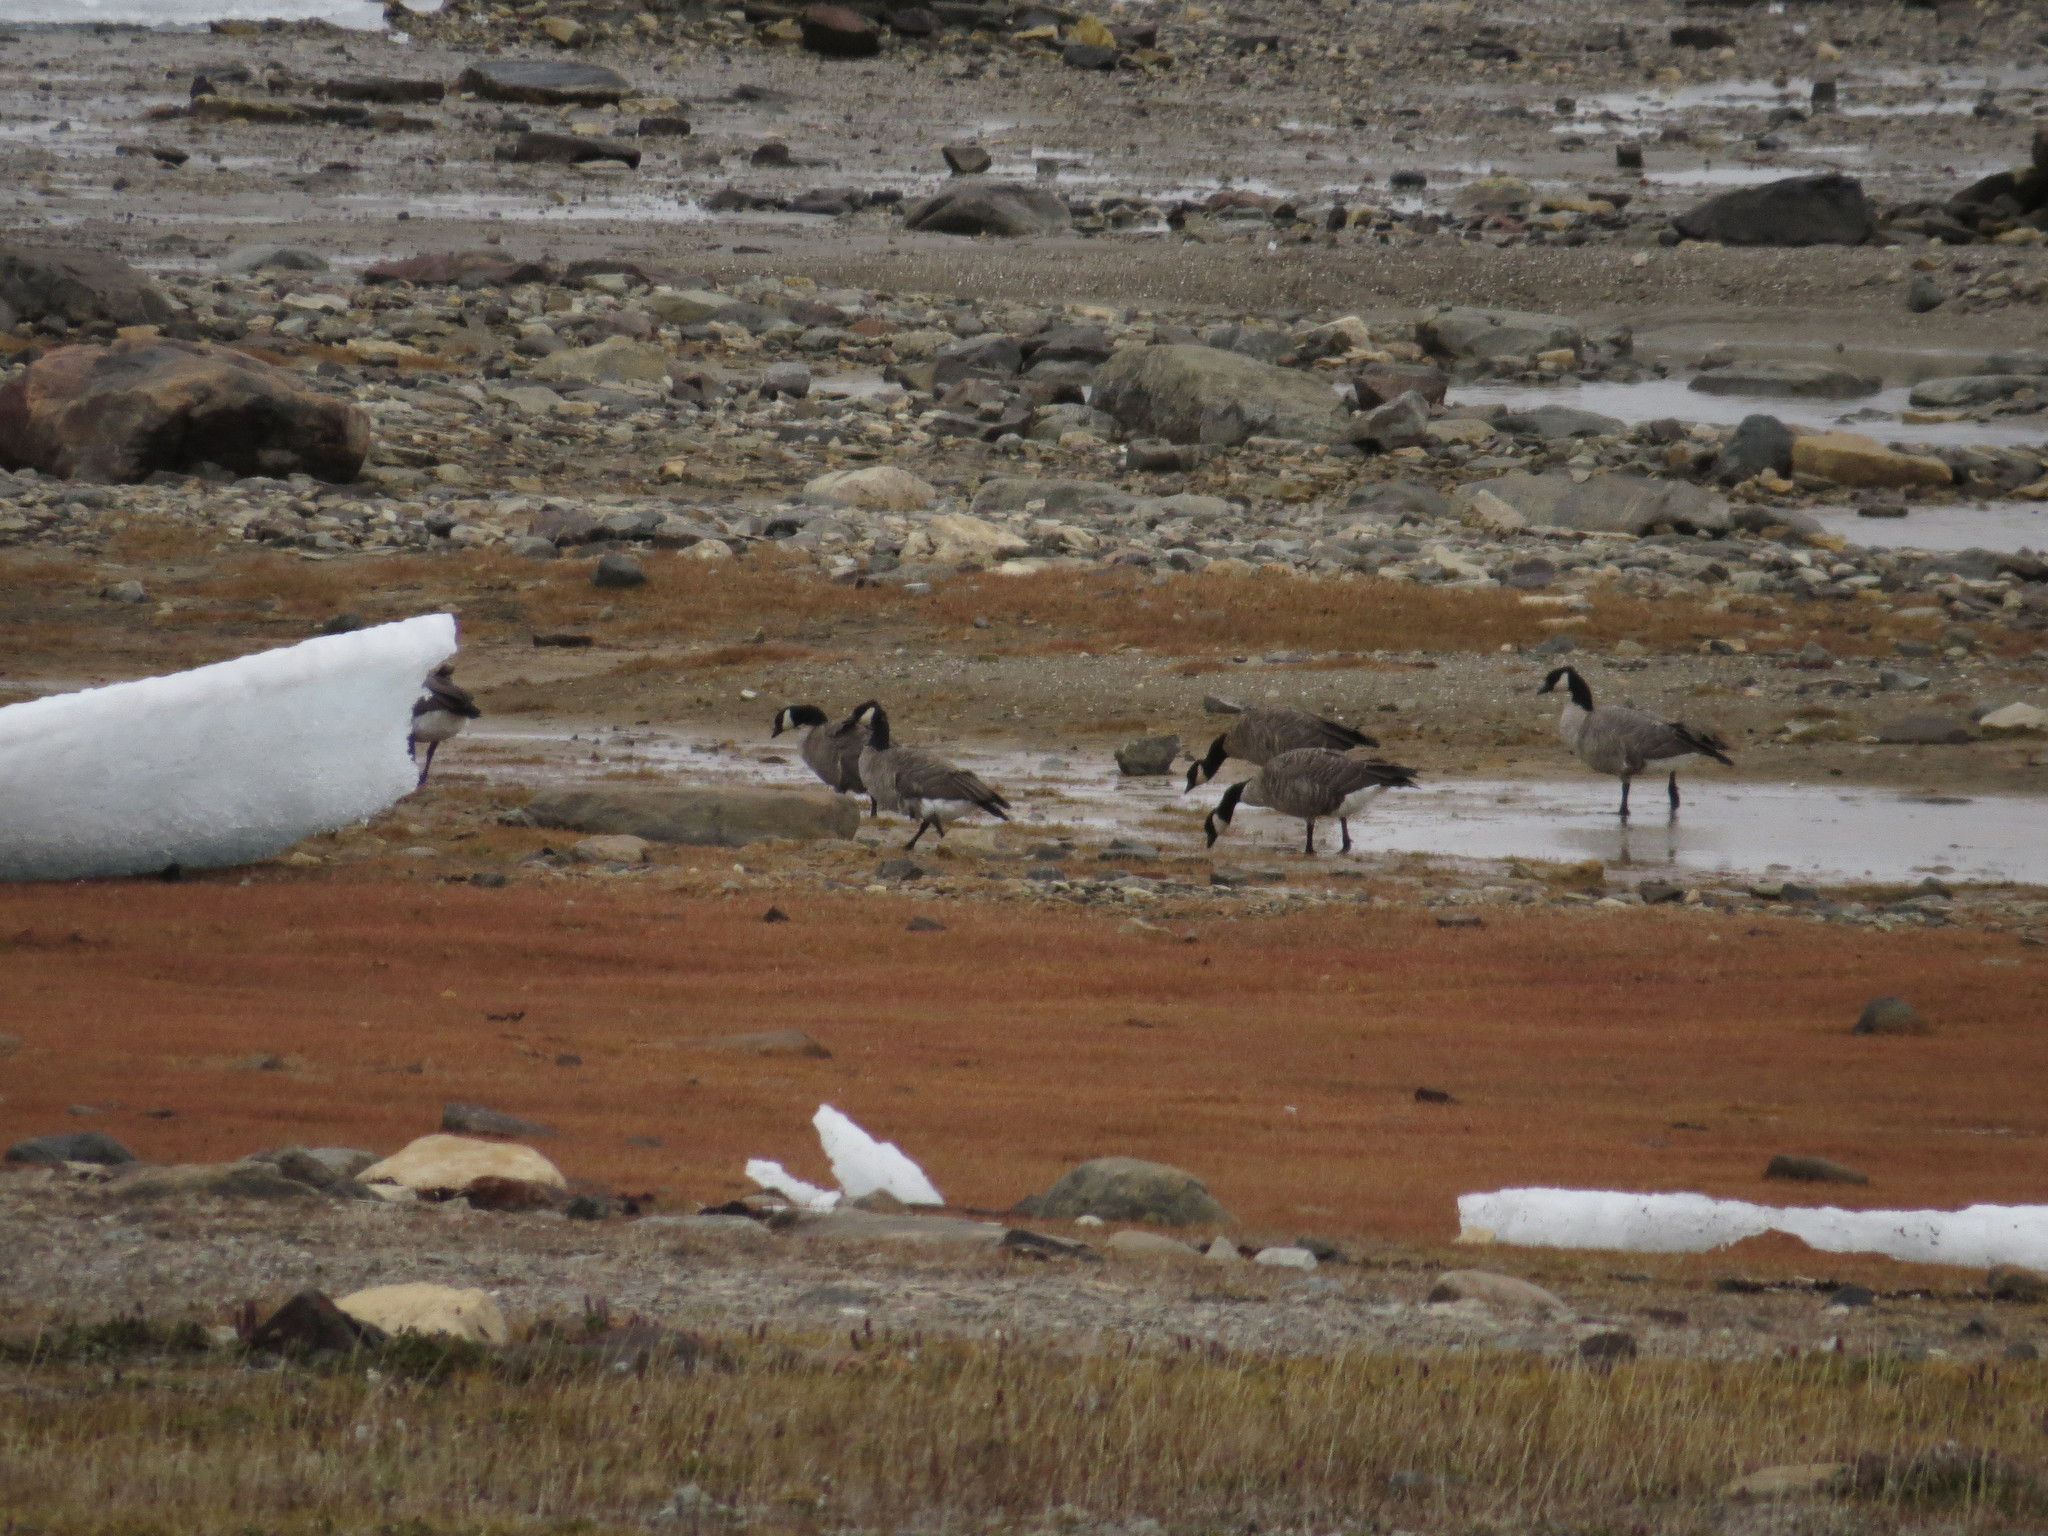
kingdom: Animalia
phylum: Chordata
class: Aves
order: Anseriformes
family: Anatidae
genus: Branta
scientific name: Branta hutchinsii
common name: Cackling goose
